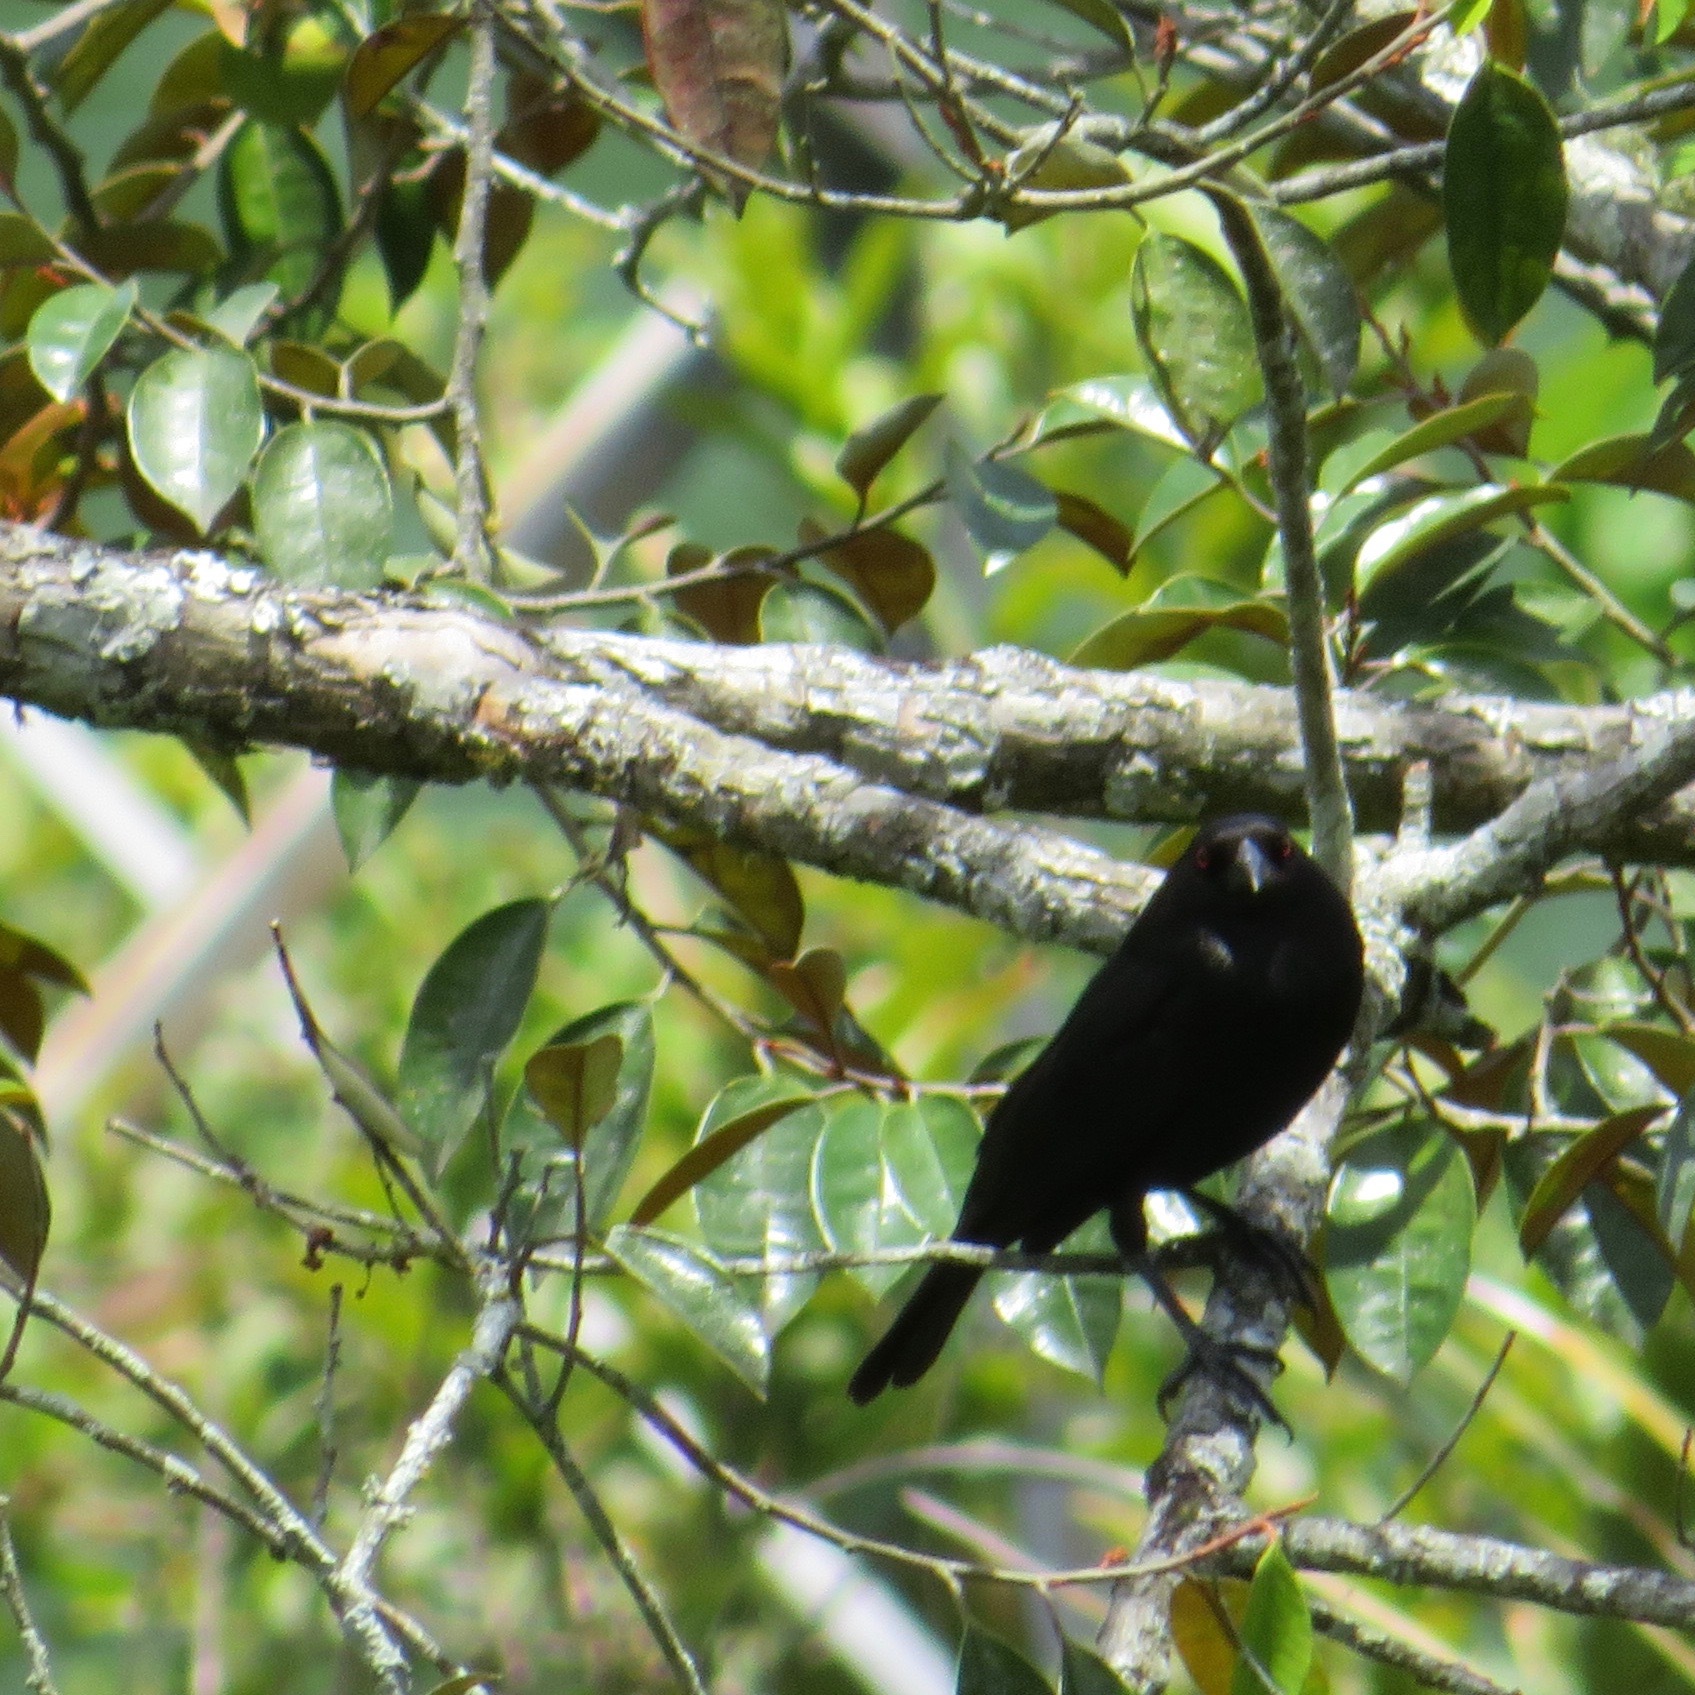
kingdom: Animalia
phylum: Chordata
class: Aves
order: Passeriformes
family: Icteridae
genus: Molothrus
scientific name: Molothrus aeneus
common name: Bronzed cowbird
